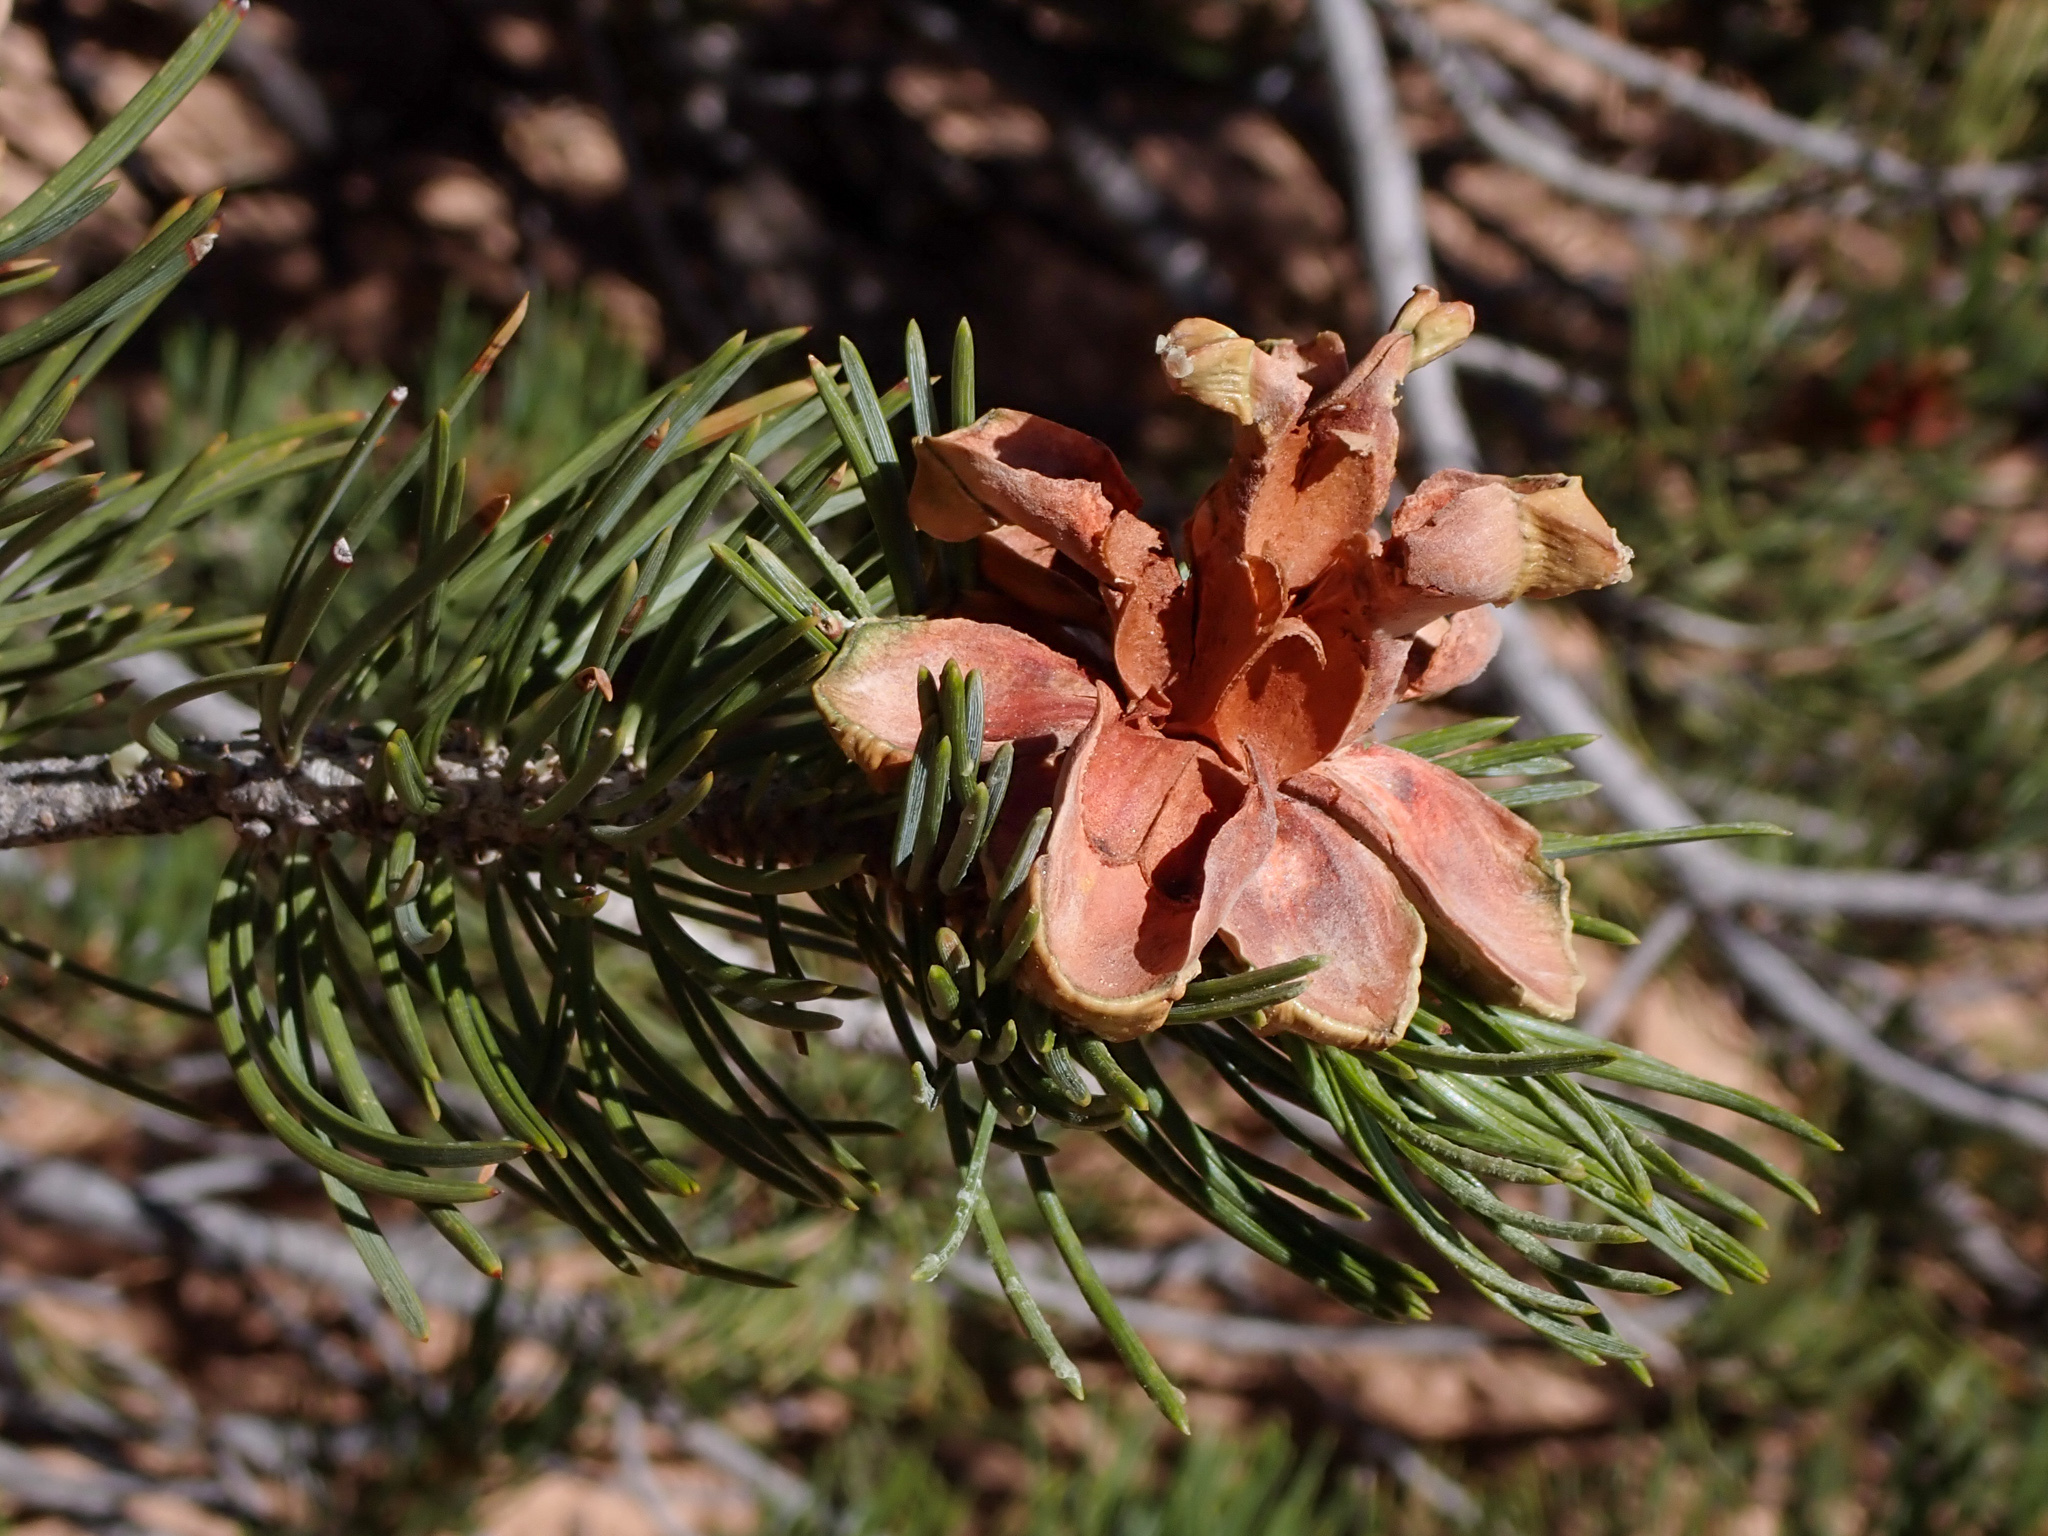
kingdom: Plantae
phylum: Tracheophyta
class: Pinopsida
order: Pinales
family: Pinaceae
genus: Pinus
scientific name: Pinus edulis
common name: Colorado pinyon
